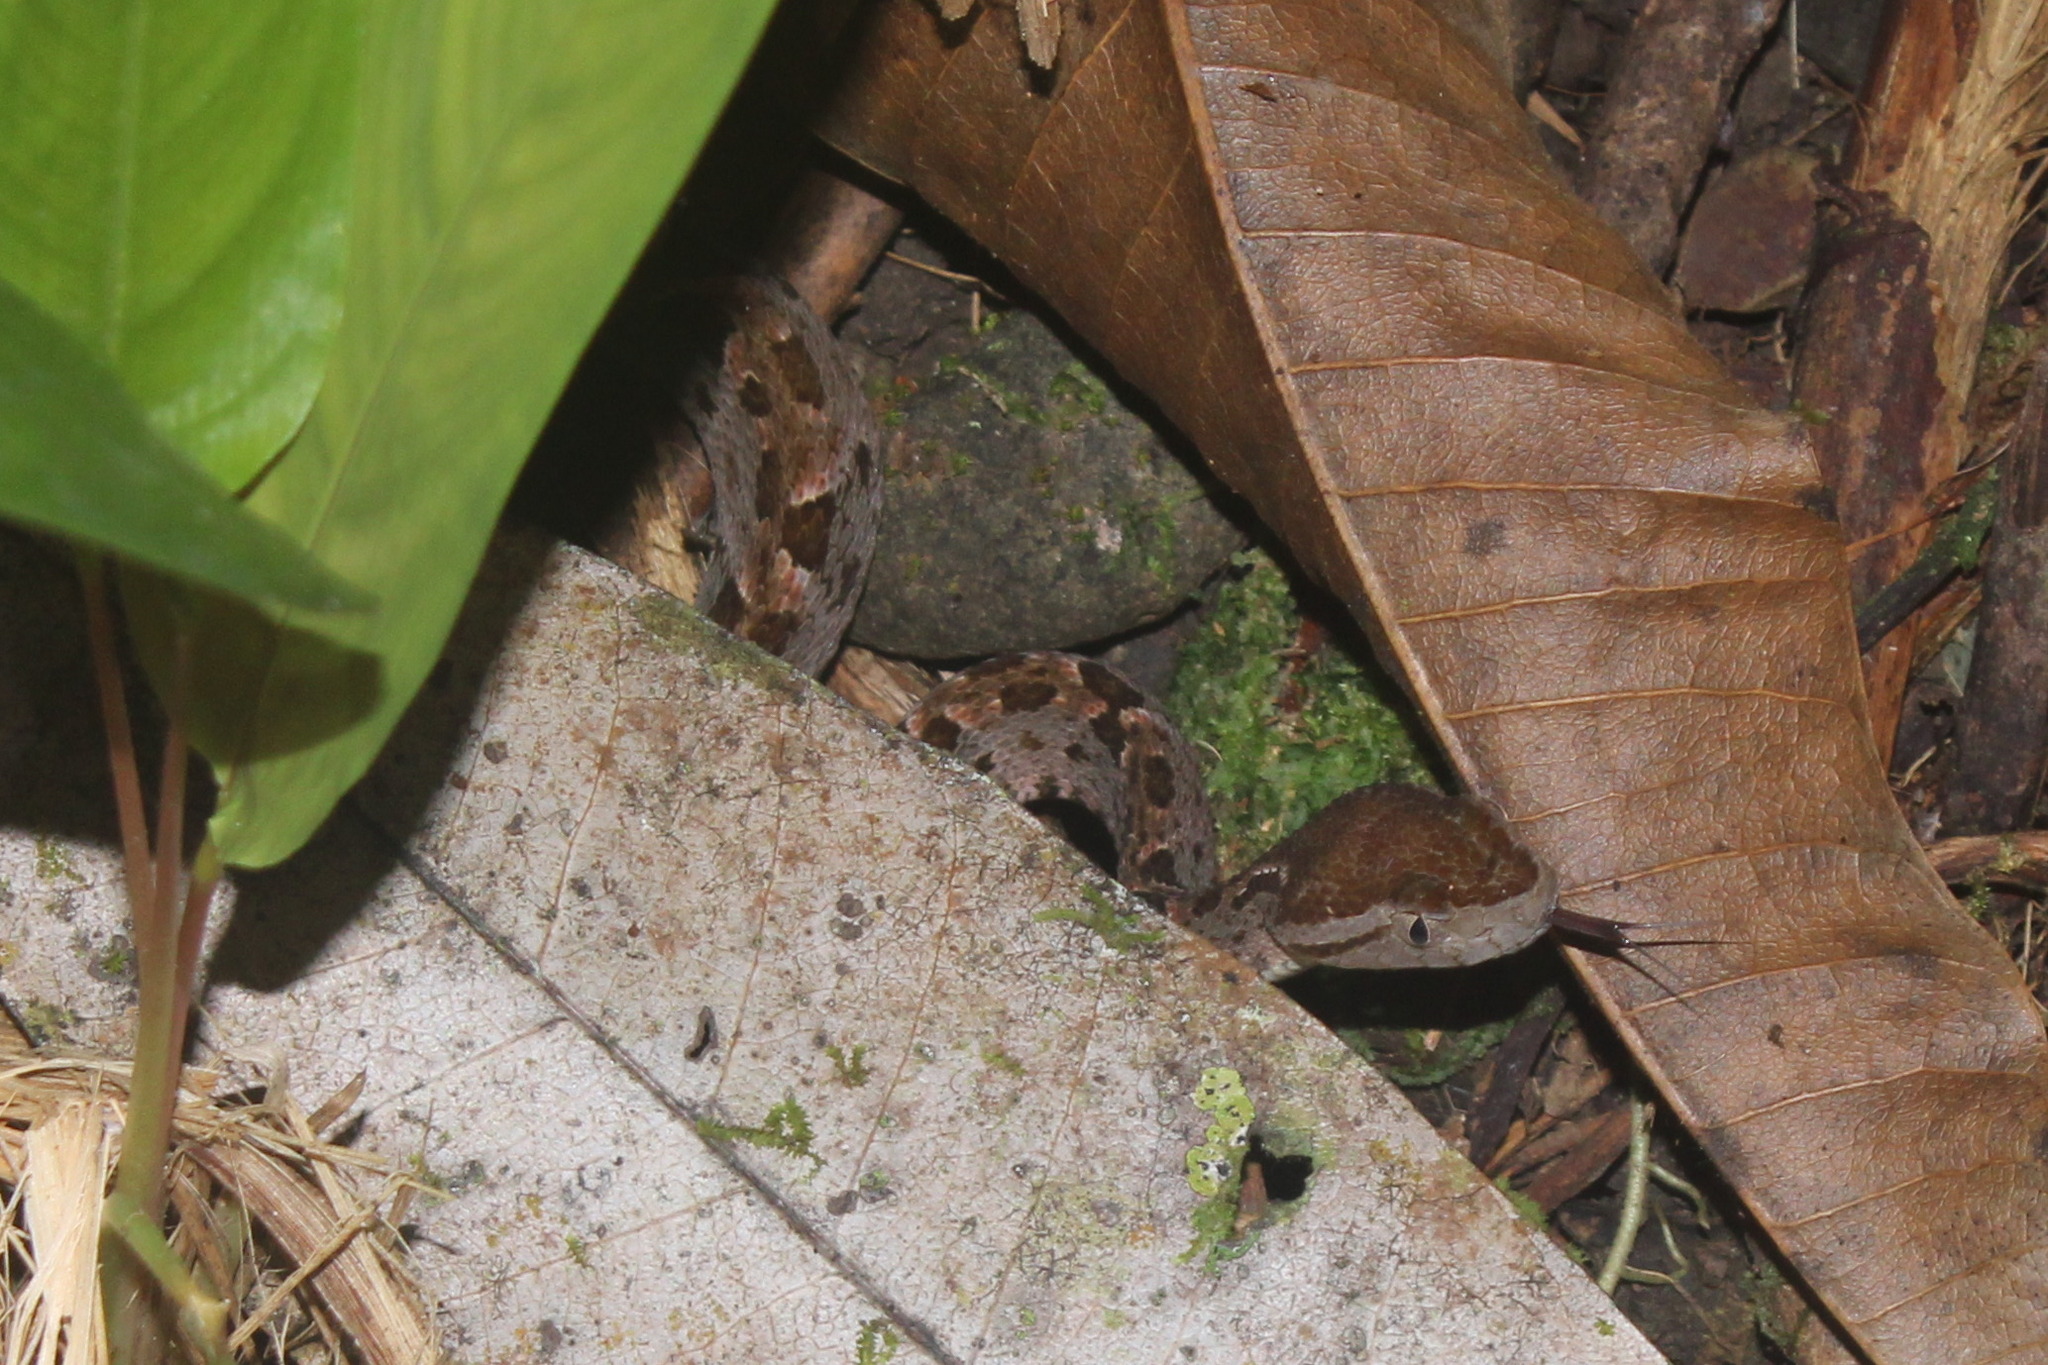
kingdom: Animalia
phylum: Chordata
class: Squamata
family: Viperidae
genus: Bothrops
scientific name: Bothrops asper
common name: Terciopelo
